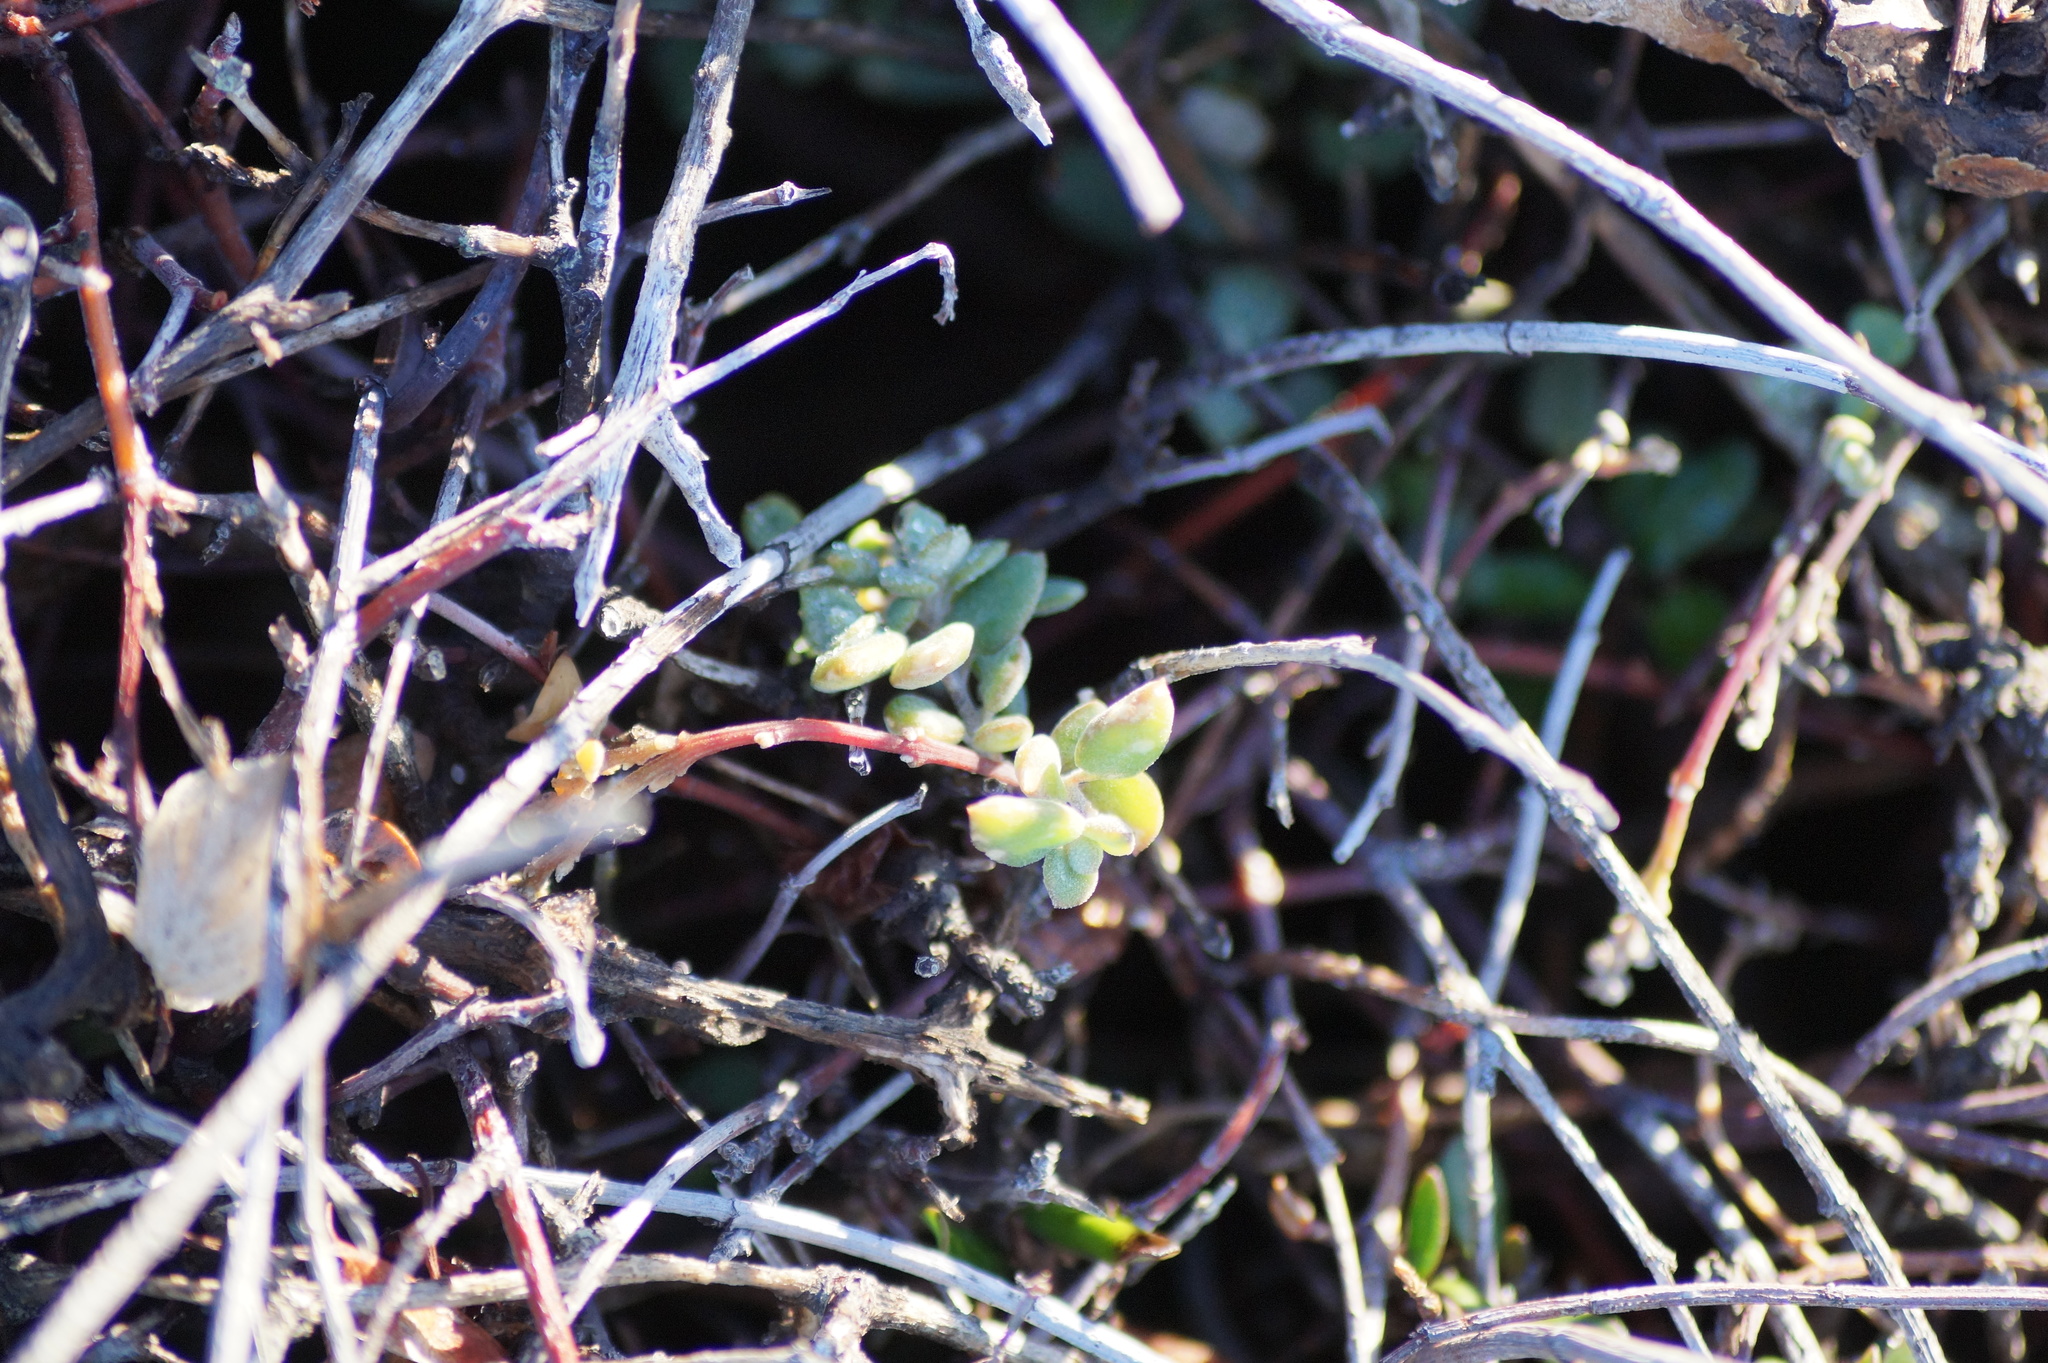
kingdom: Plantae
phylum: Tracheophyta
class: Magnoliopsida
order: Caryophyllales
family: Amaranthaceae
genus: Chenopodium
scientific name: Chenopodium nutans
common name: Climbing-saltbush
